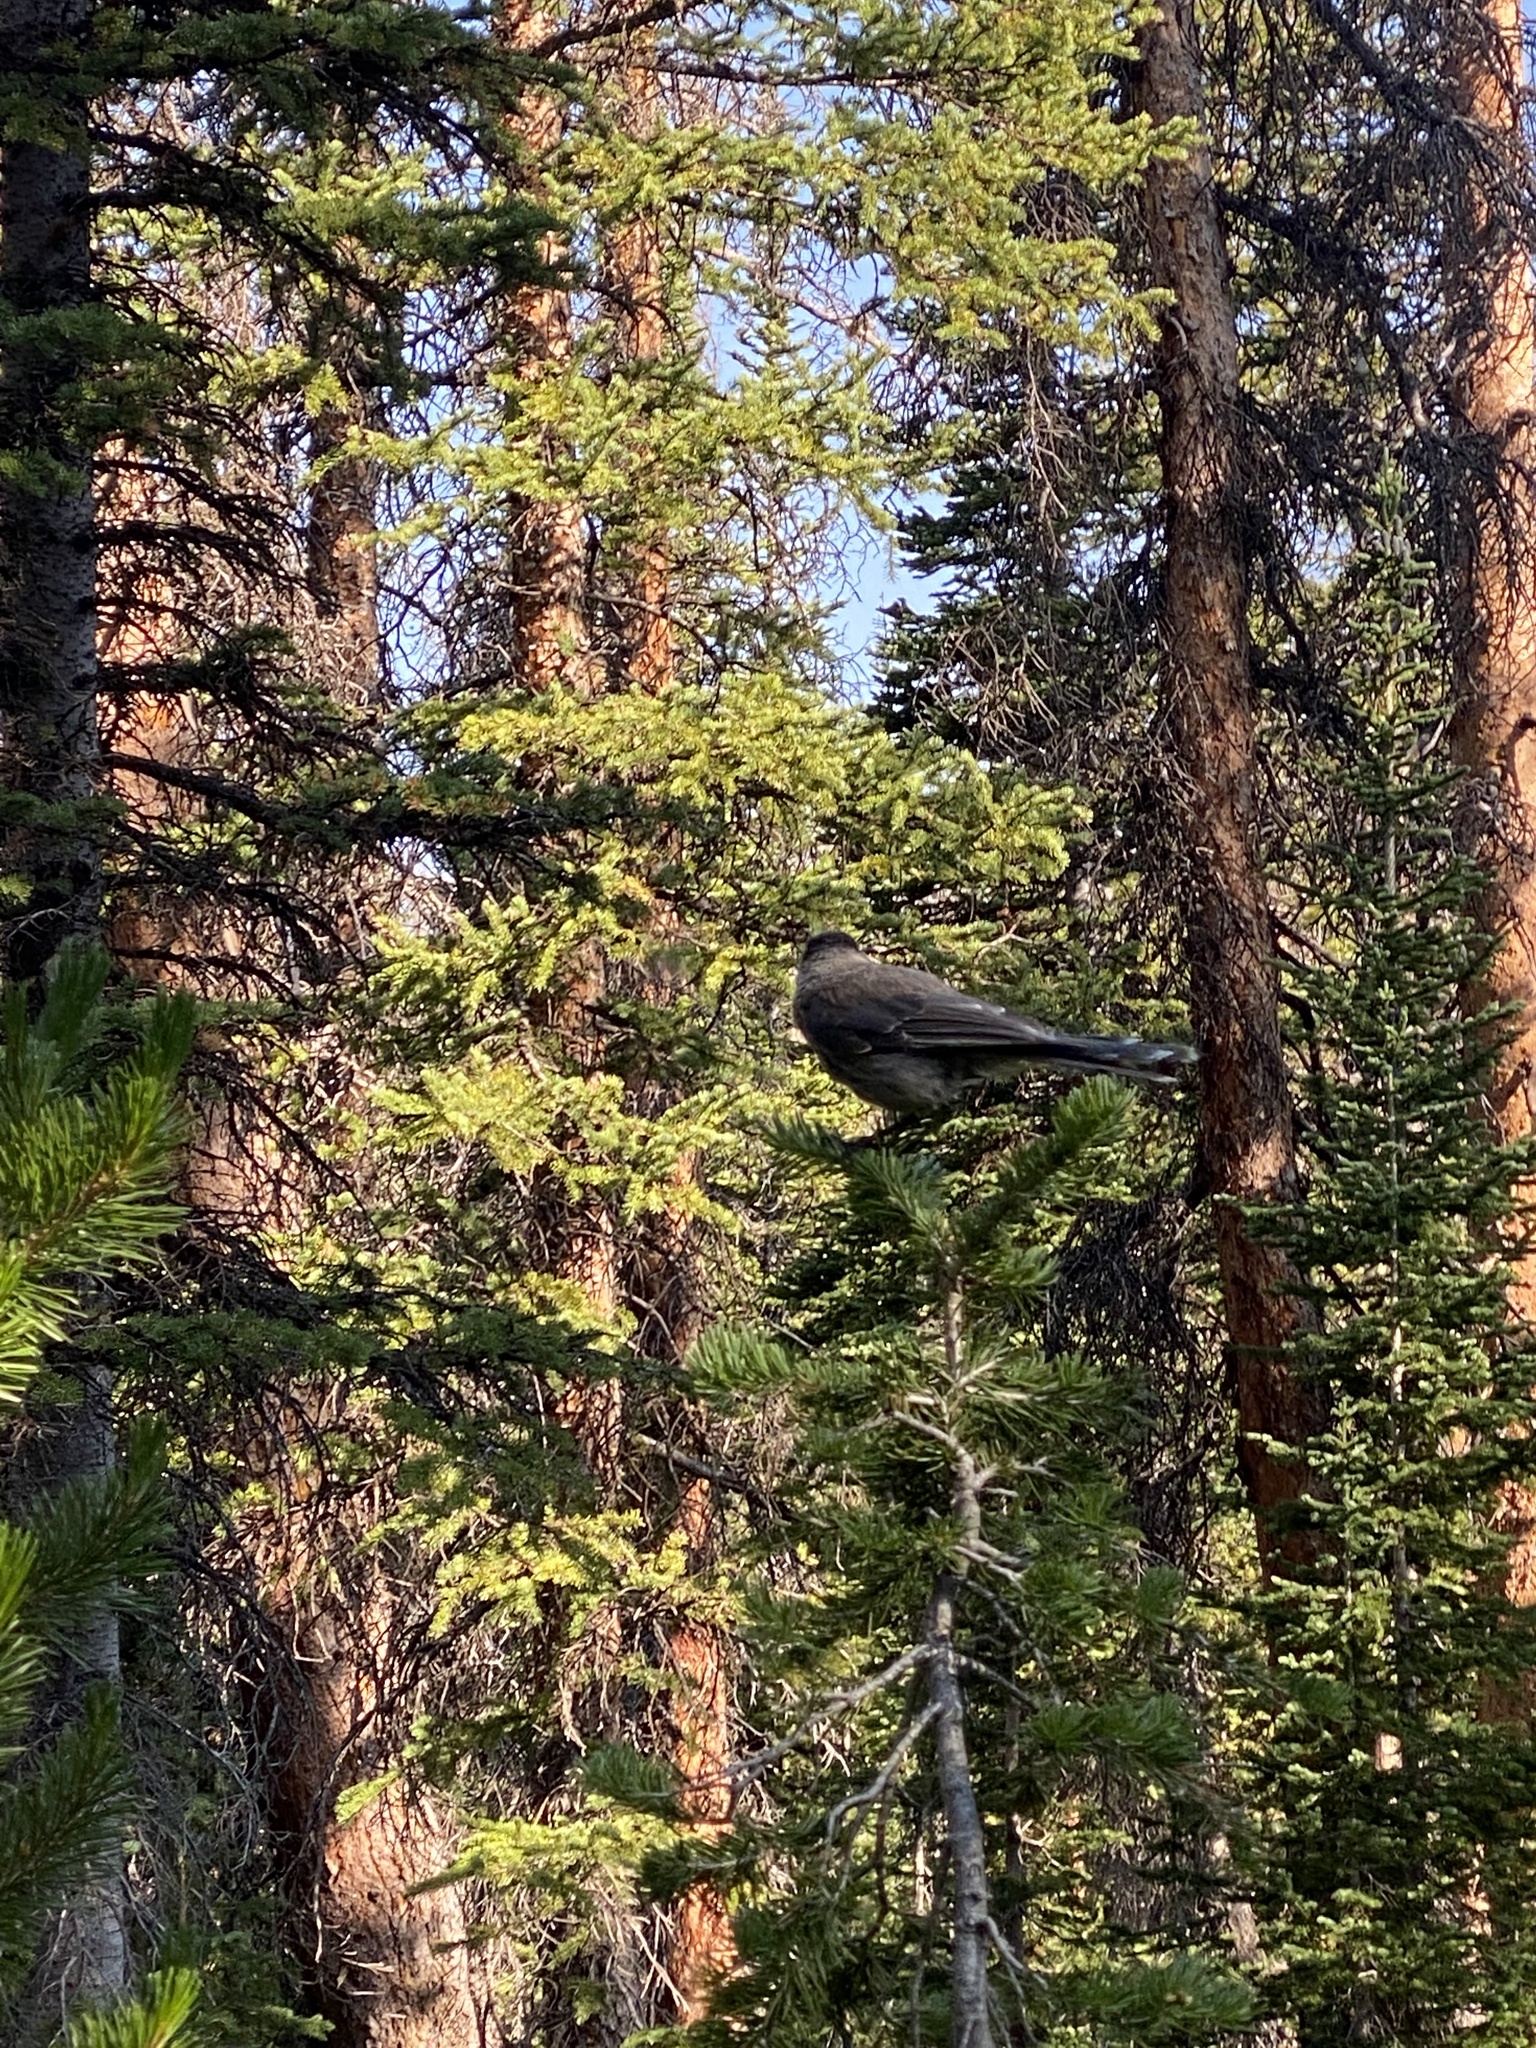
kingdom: Animalia
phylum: Chordata
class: Aves
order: Passeriformes
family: Corvidae
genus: Perisoreus
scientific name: Perisoreus canadensis
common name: Gray jay
